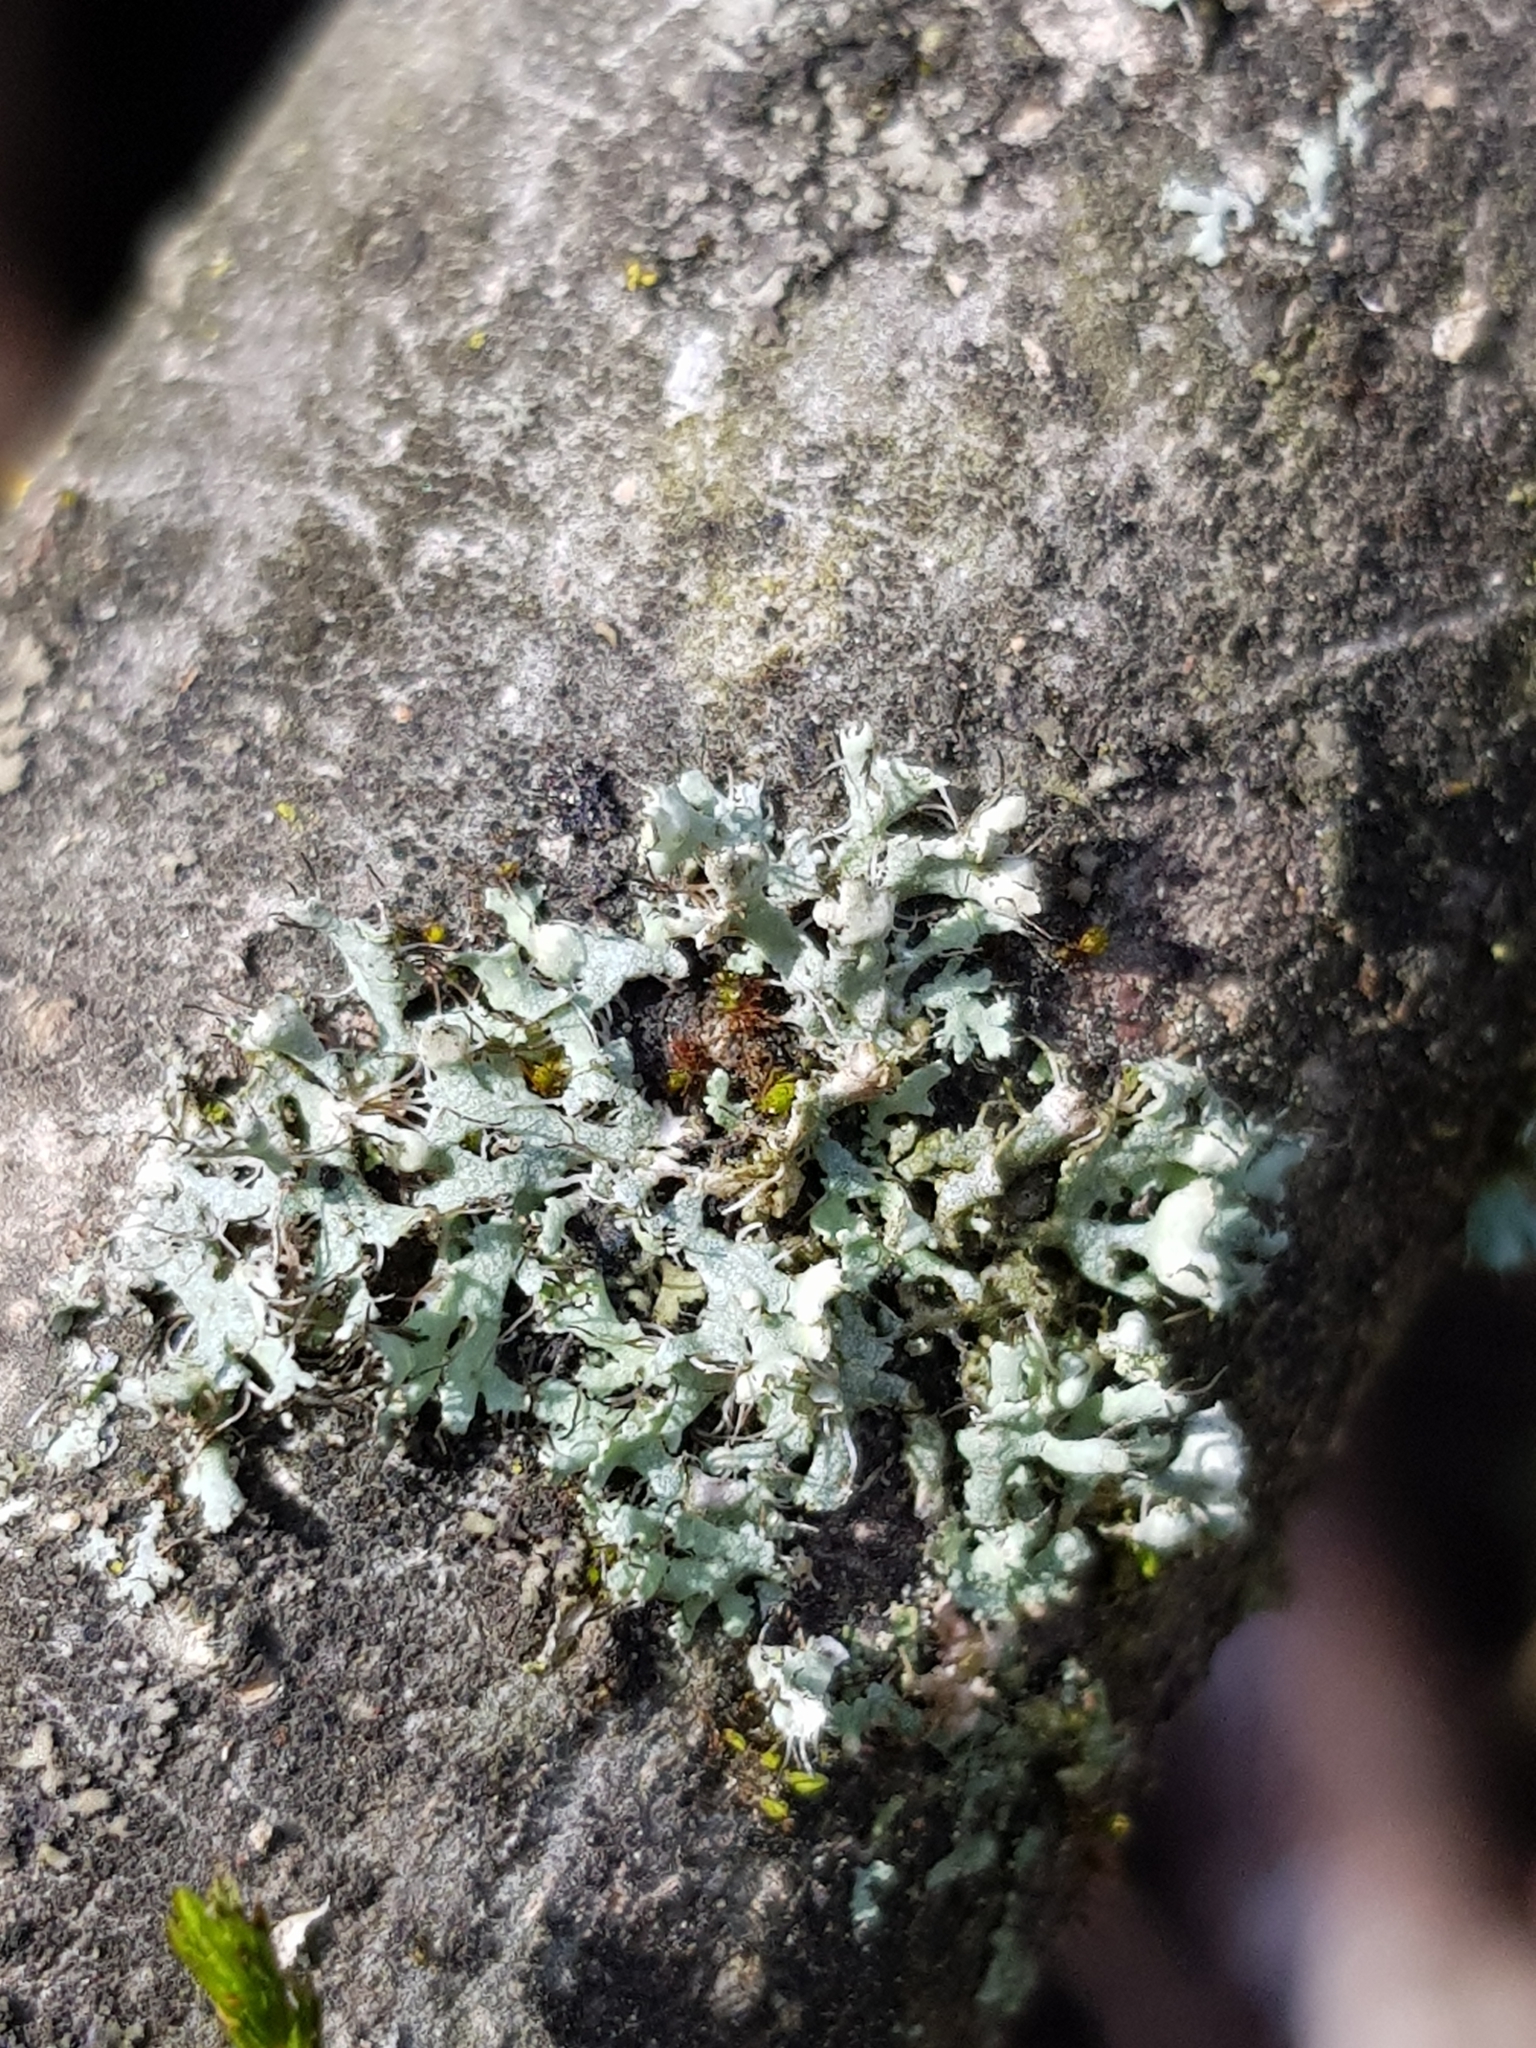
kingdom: Fungi
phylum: Ascomycota
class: Lecanoromycetes
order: Caliciales
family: Physciaceae
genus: Physcia
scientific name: Physcia adscendens
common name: Hooded rosette lichen
